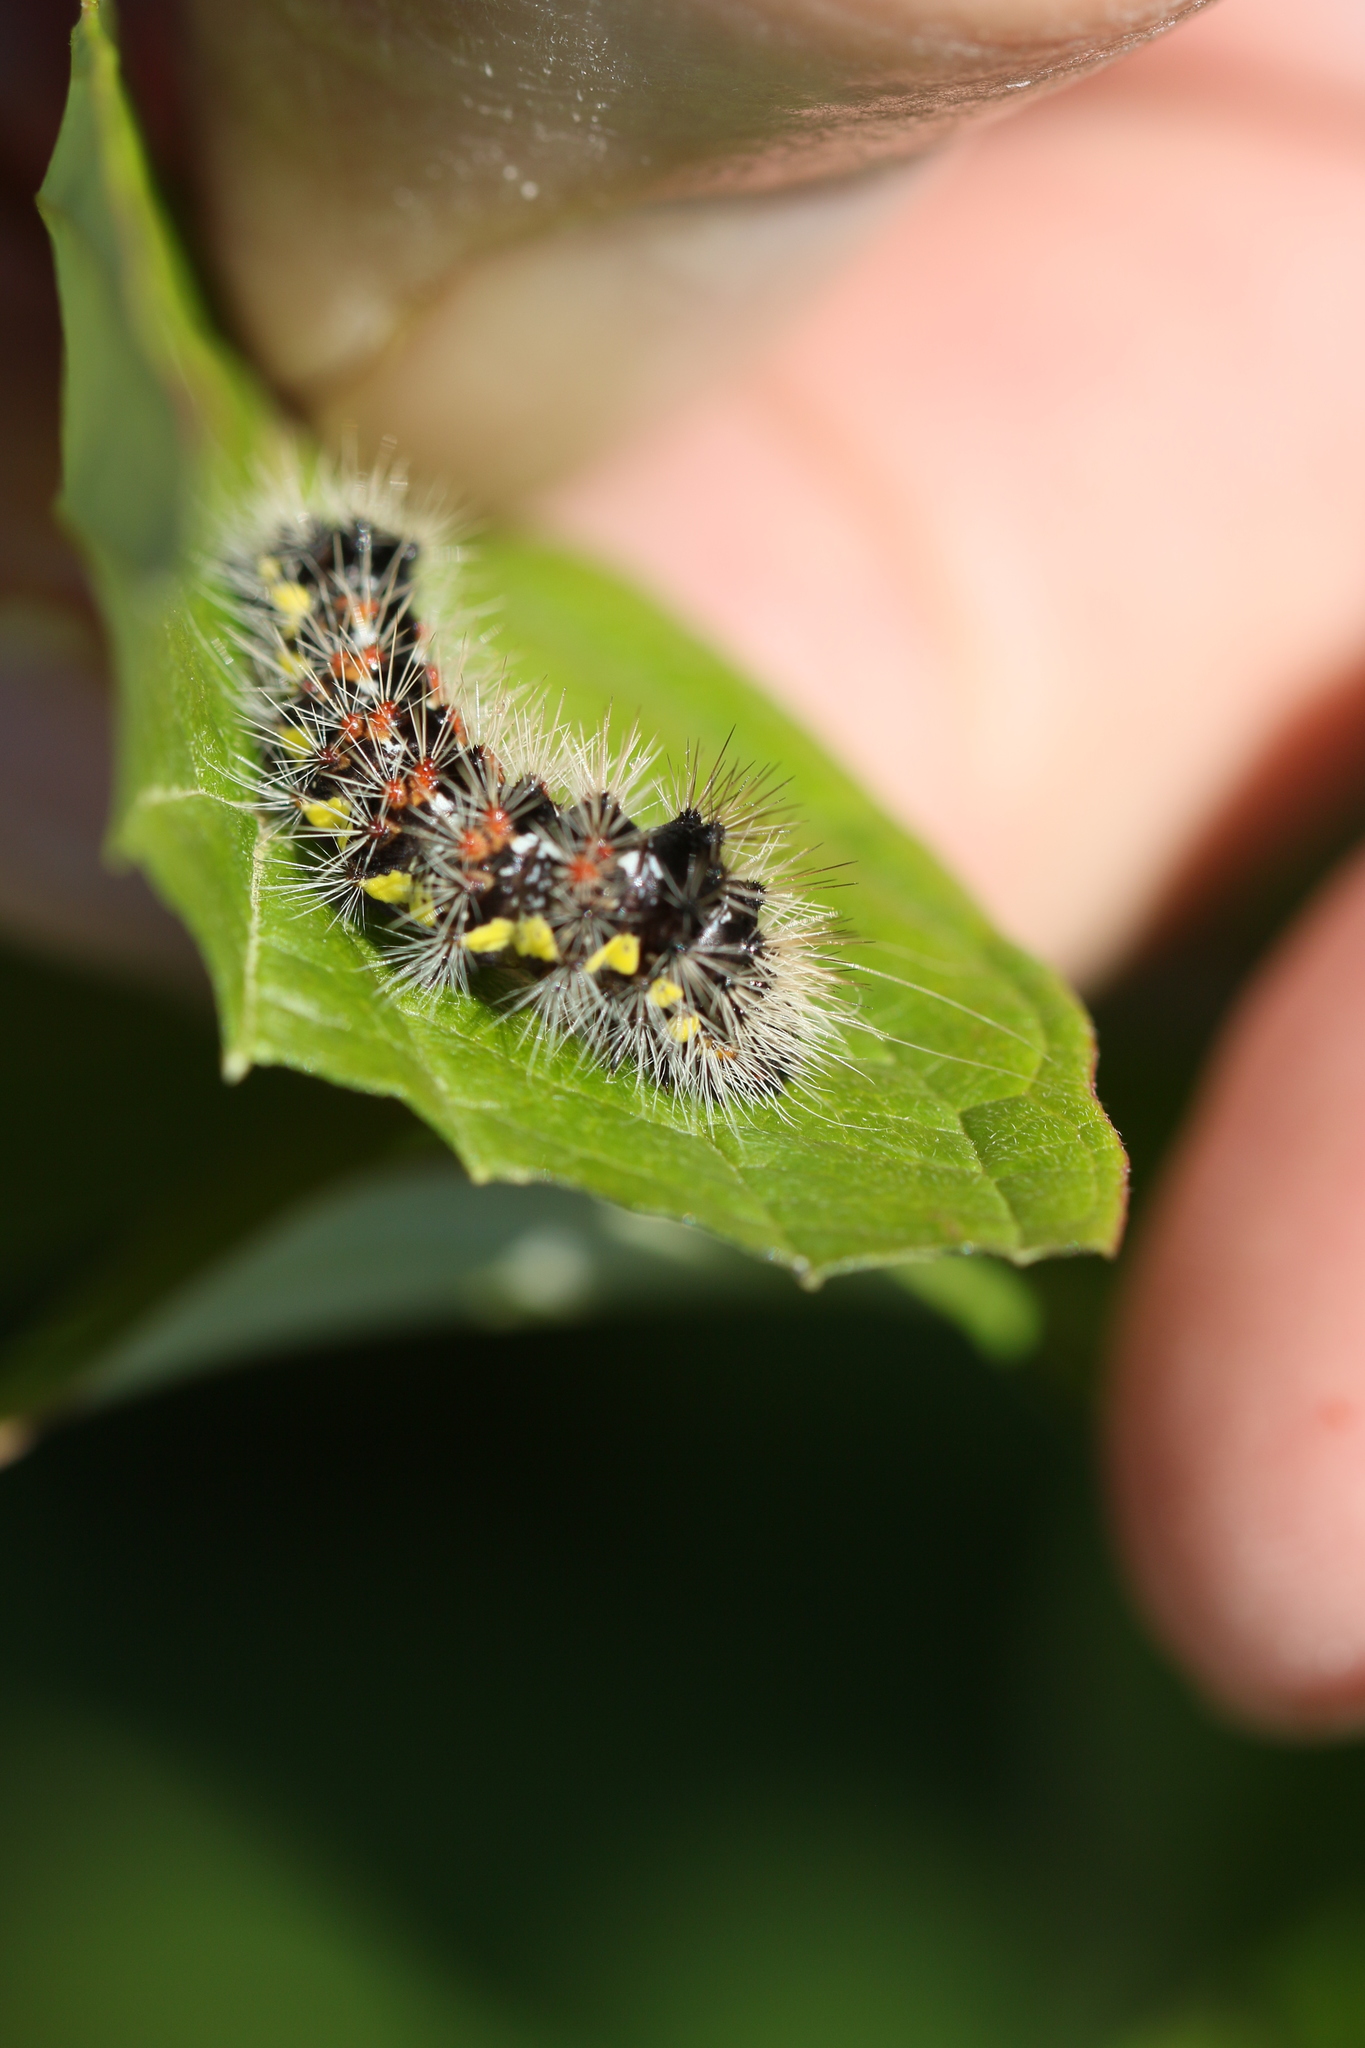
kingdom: Animalia
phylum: Arthropoda
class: Insecta
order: Lepidoptera
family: Noctuidae
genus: Acronicta
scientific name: Acronicta oblinita
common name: Smeared dagger
